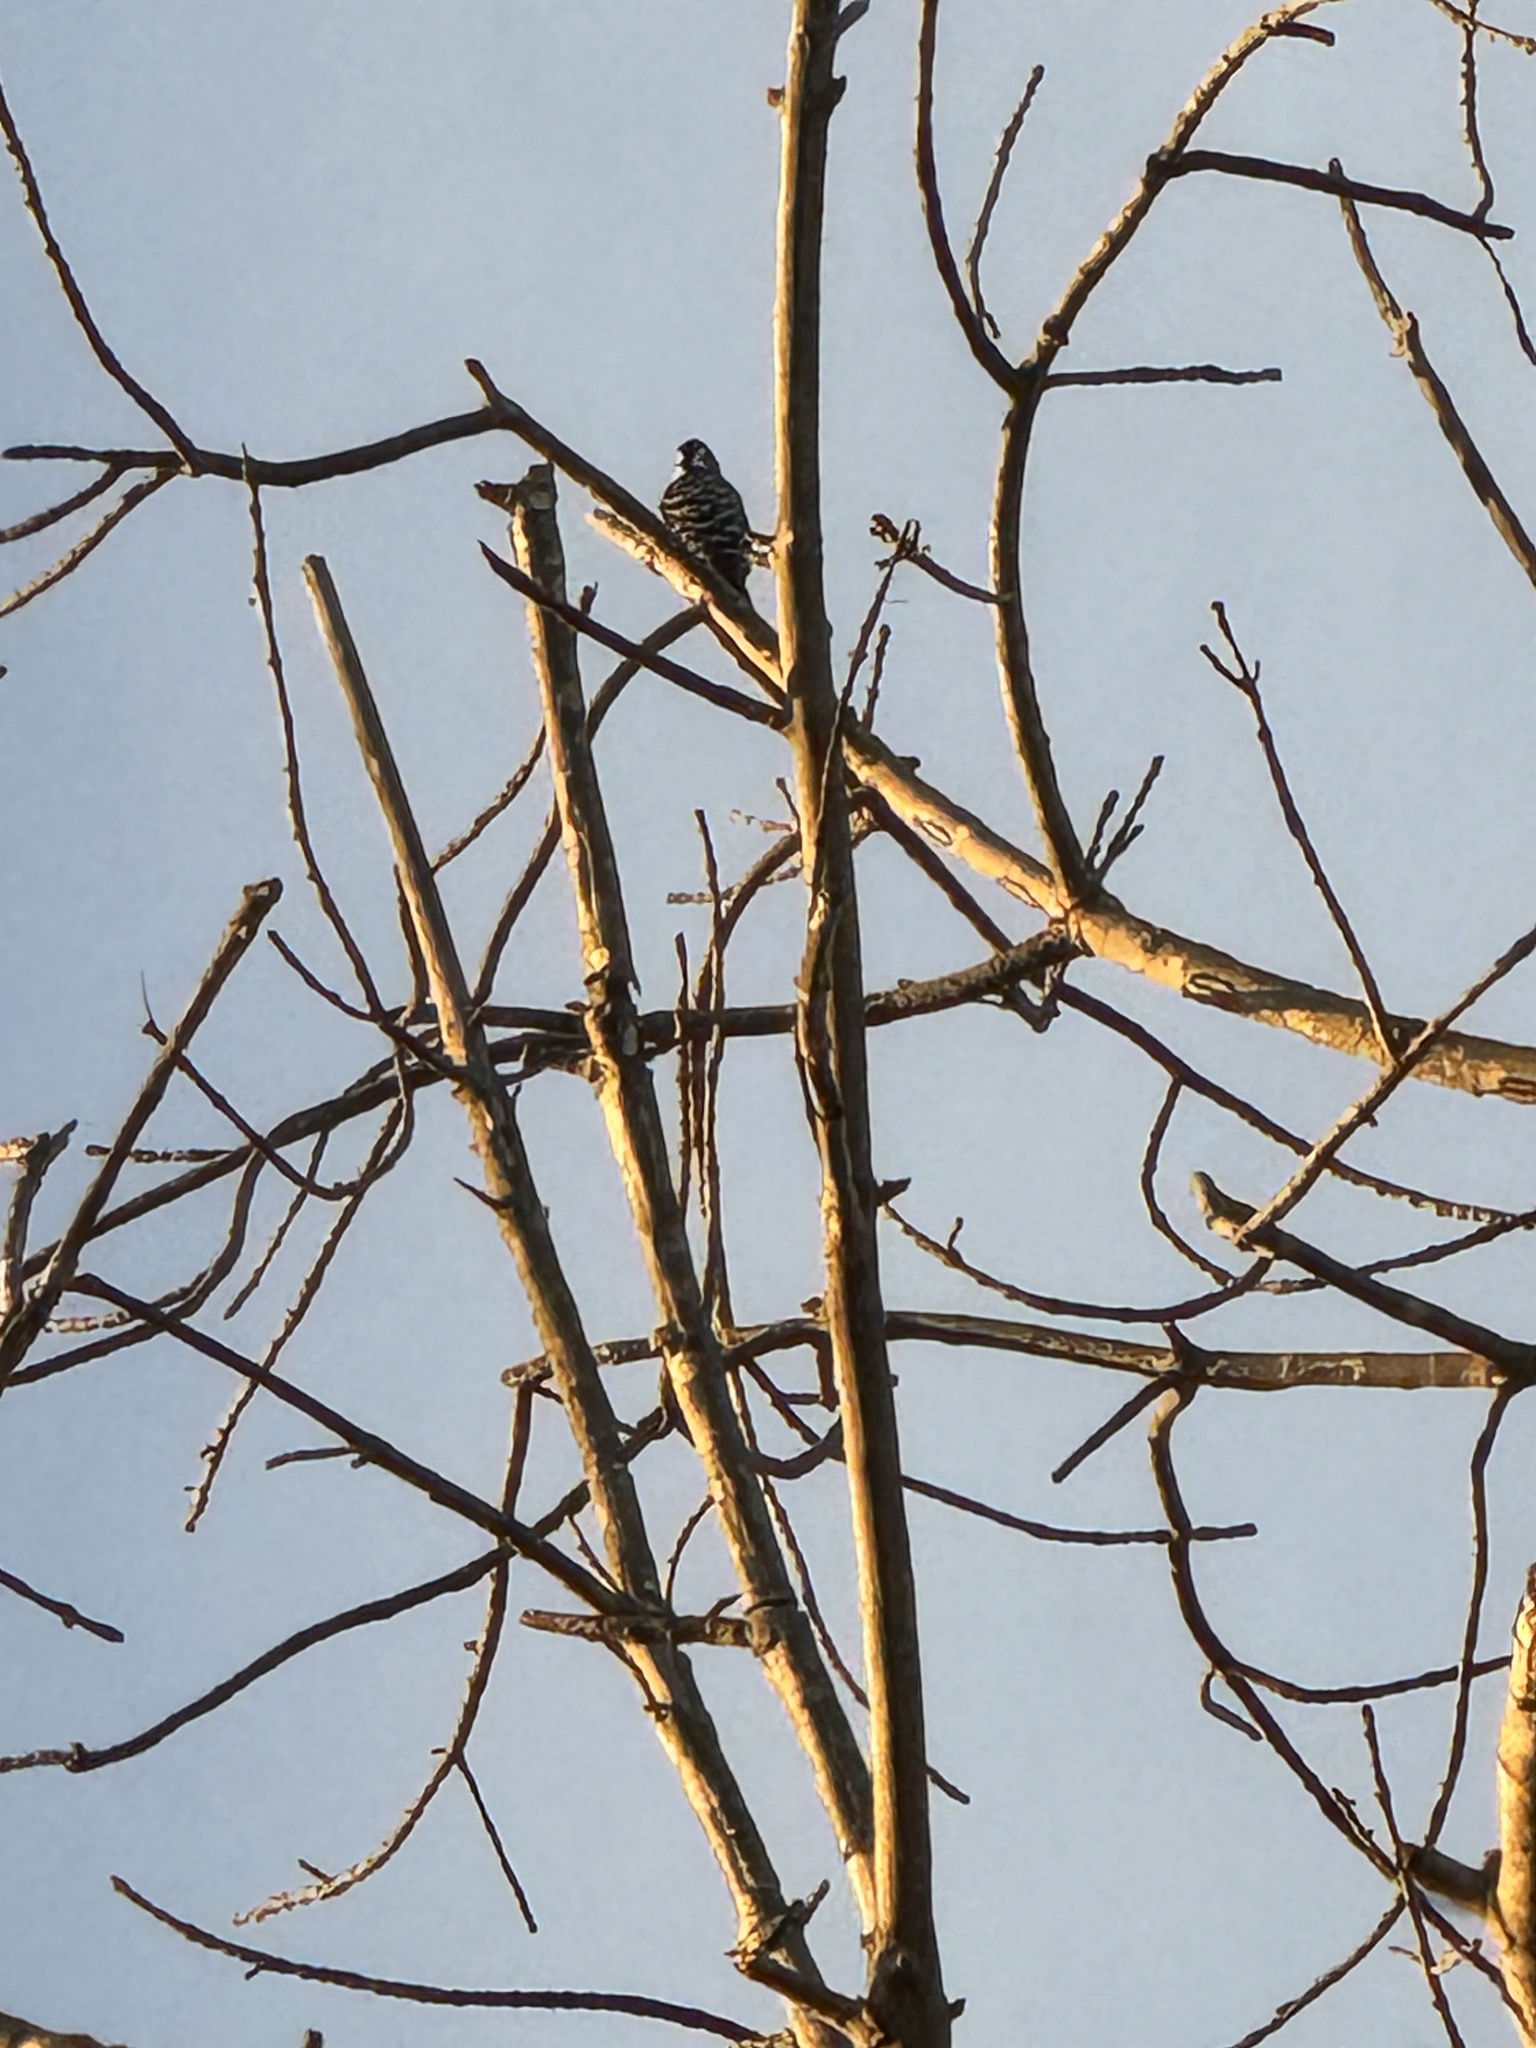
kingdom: Animalia
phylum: Chordata
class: Aves
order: Piciformes
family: Picidae
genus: Dryobates
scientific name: Dryobates nuttallii
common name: Nuttall's woodpecker
